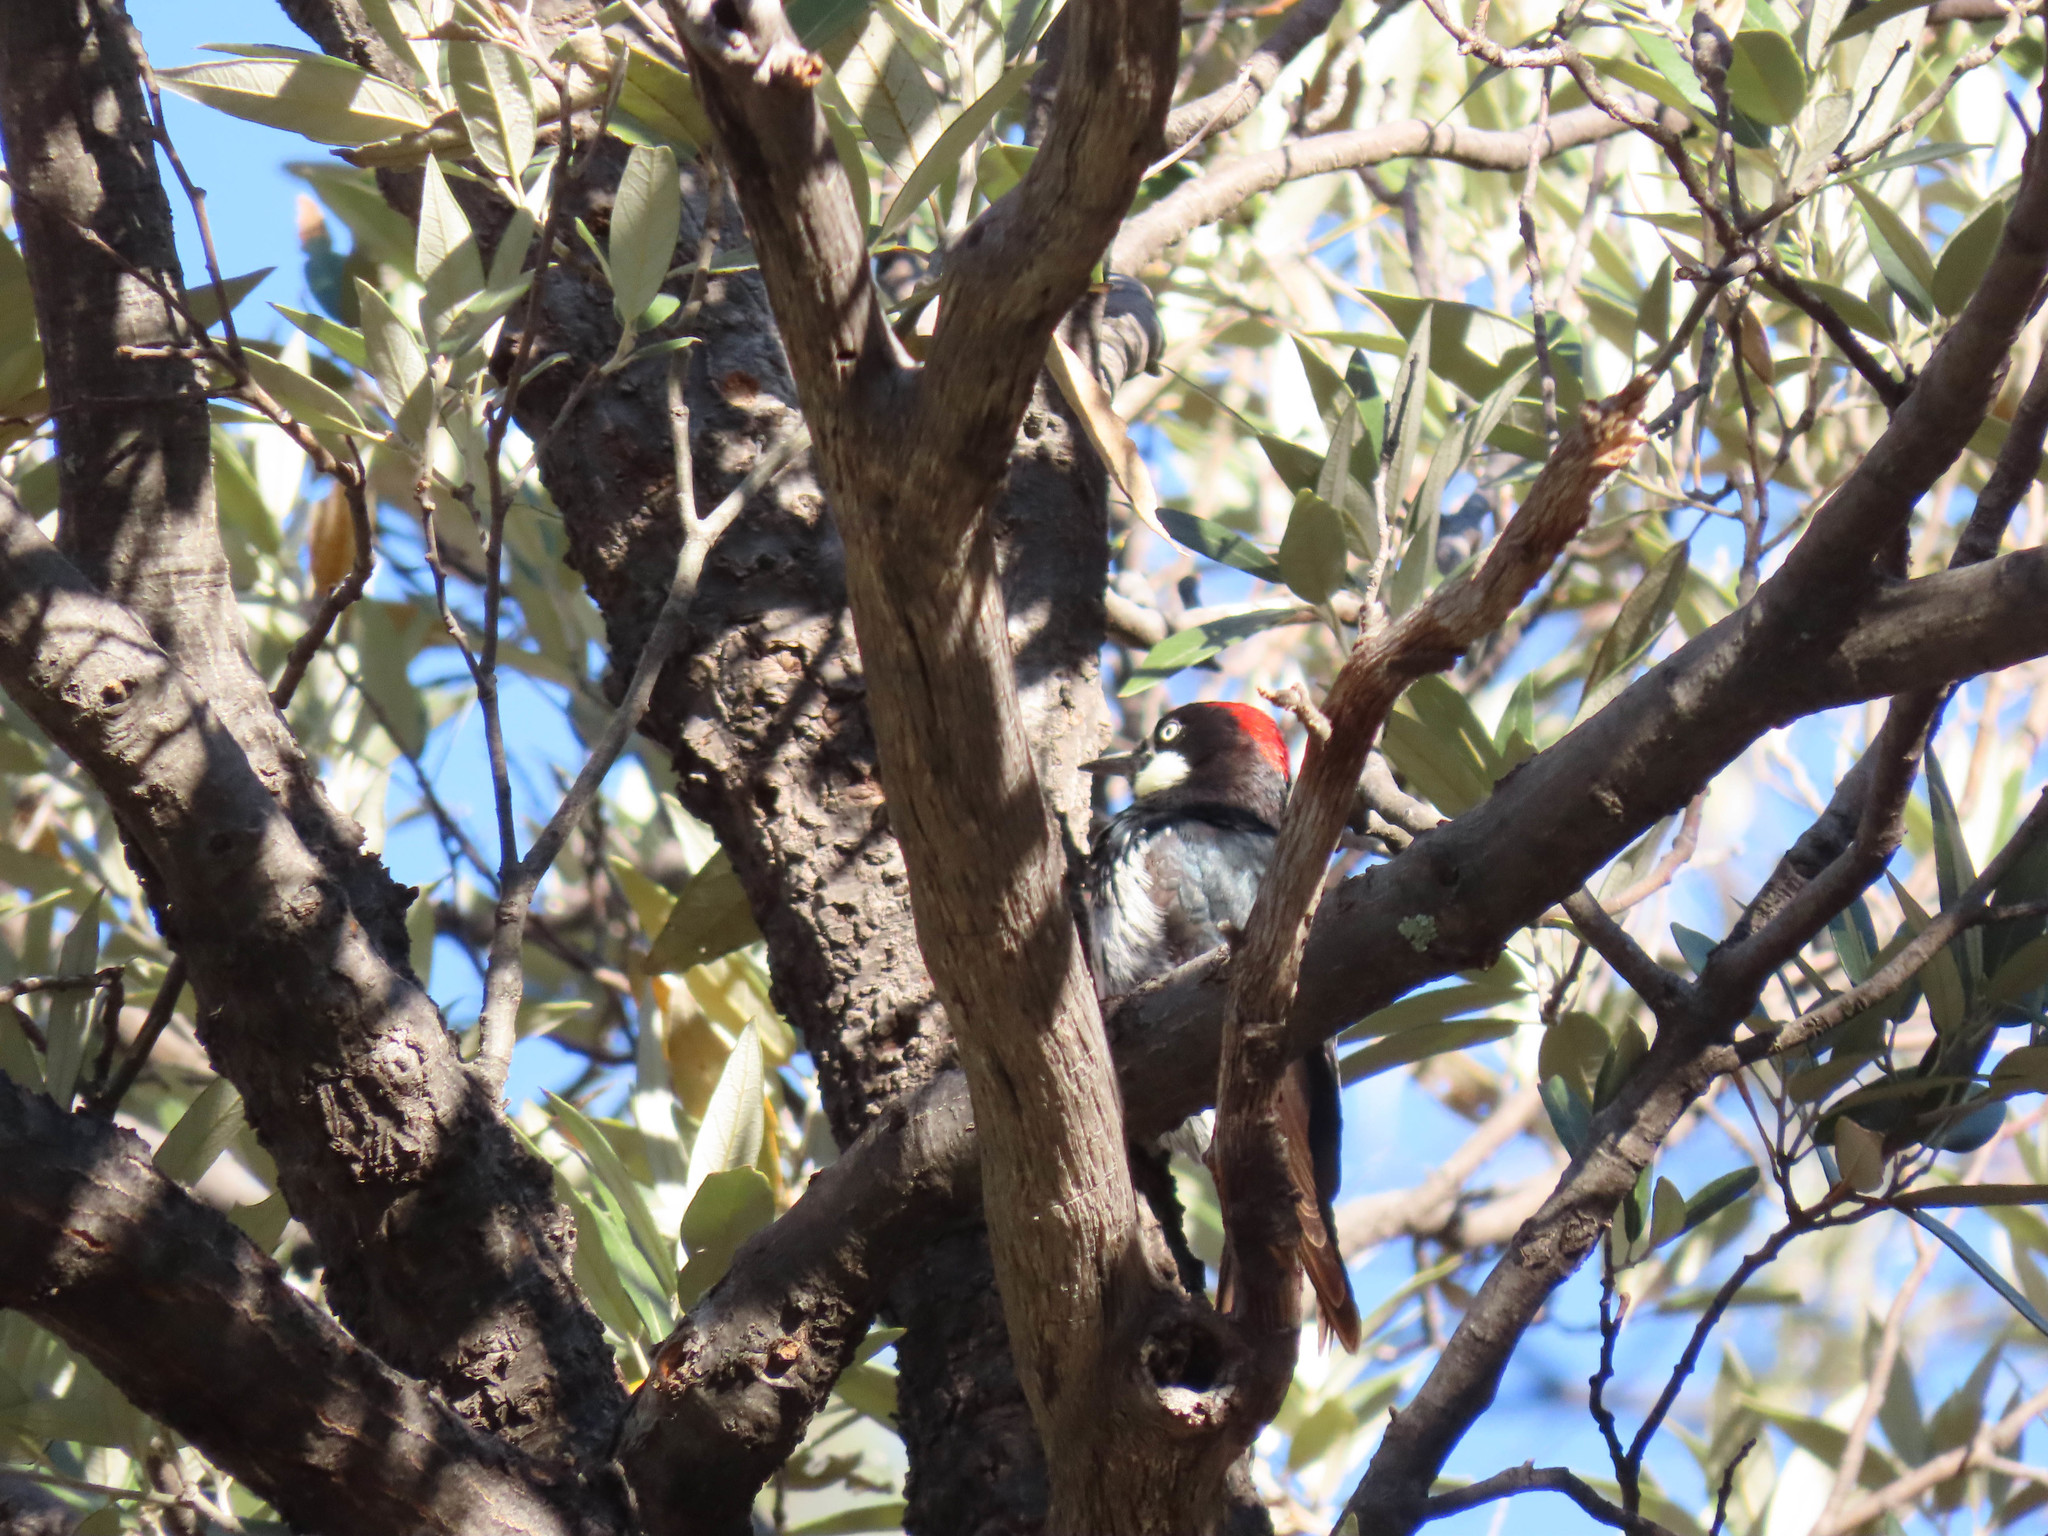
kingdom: Animalia
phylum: Chordata
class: Aves
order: Piciformes
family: Picidae
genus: Melanerpes
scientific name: Melanerpes formicivorus
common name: Acorn woodpecker
